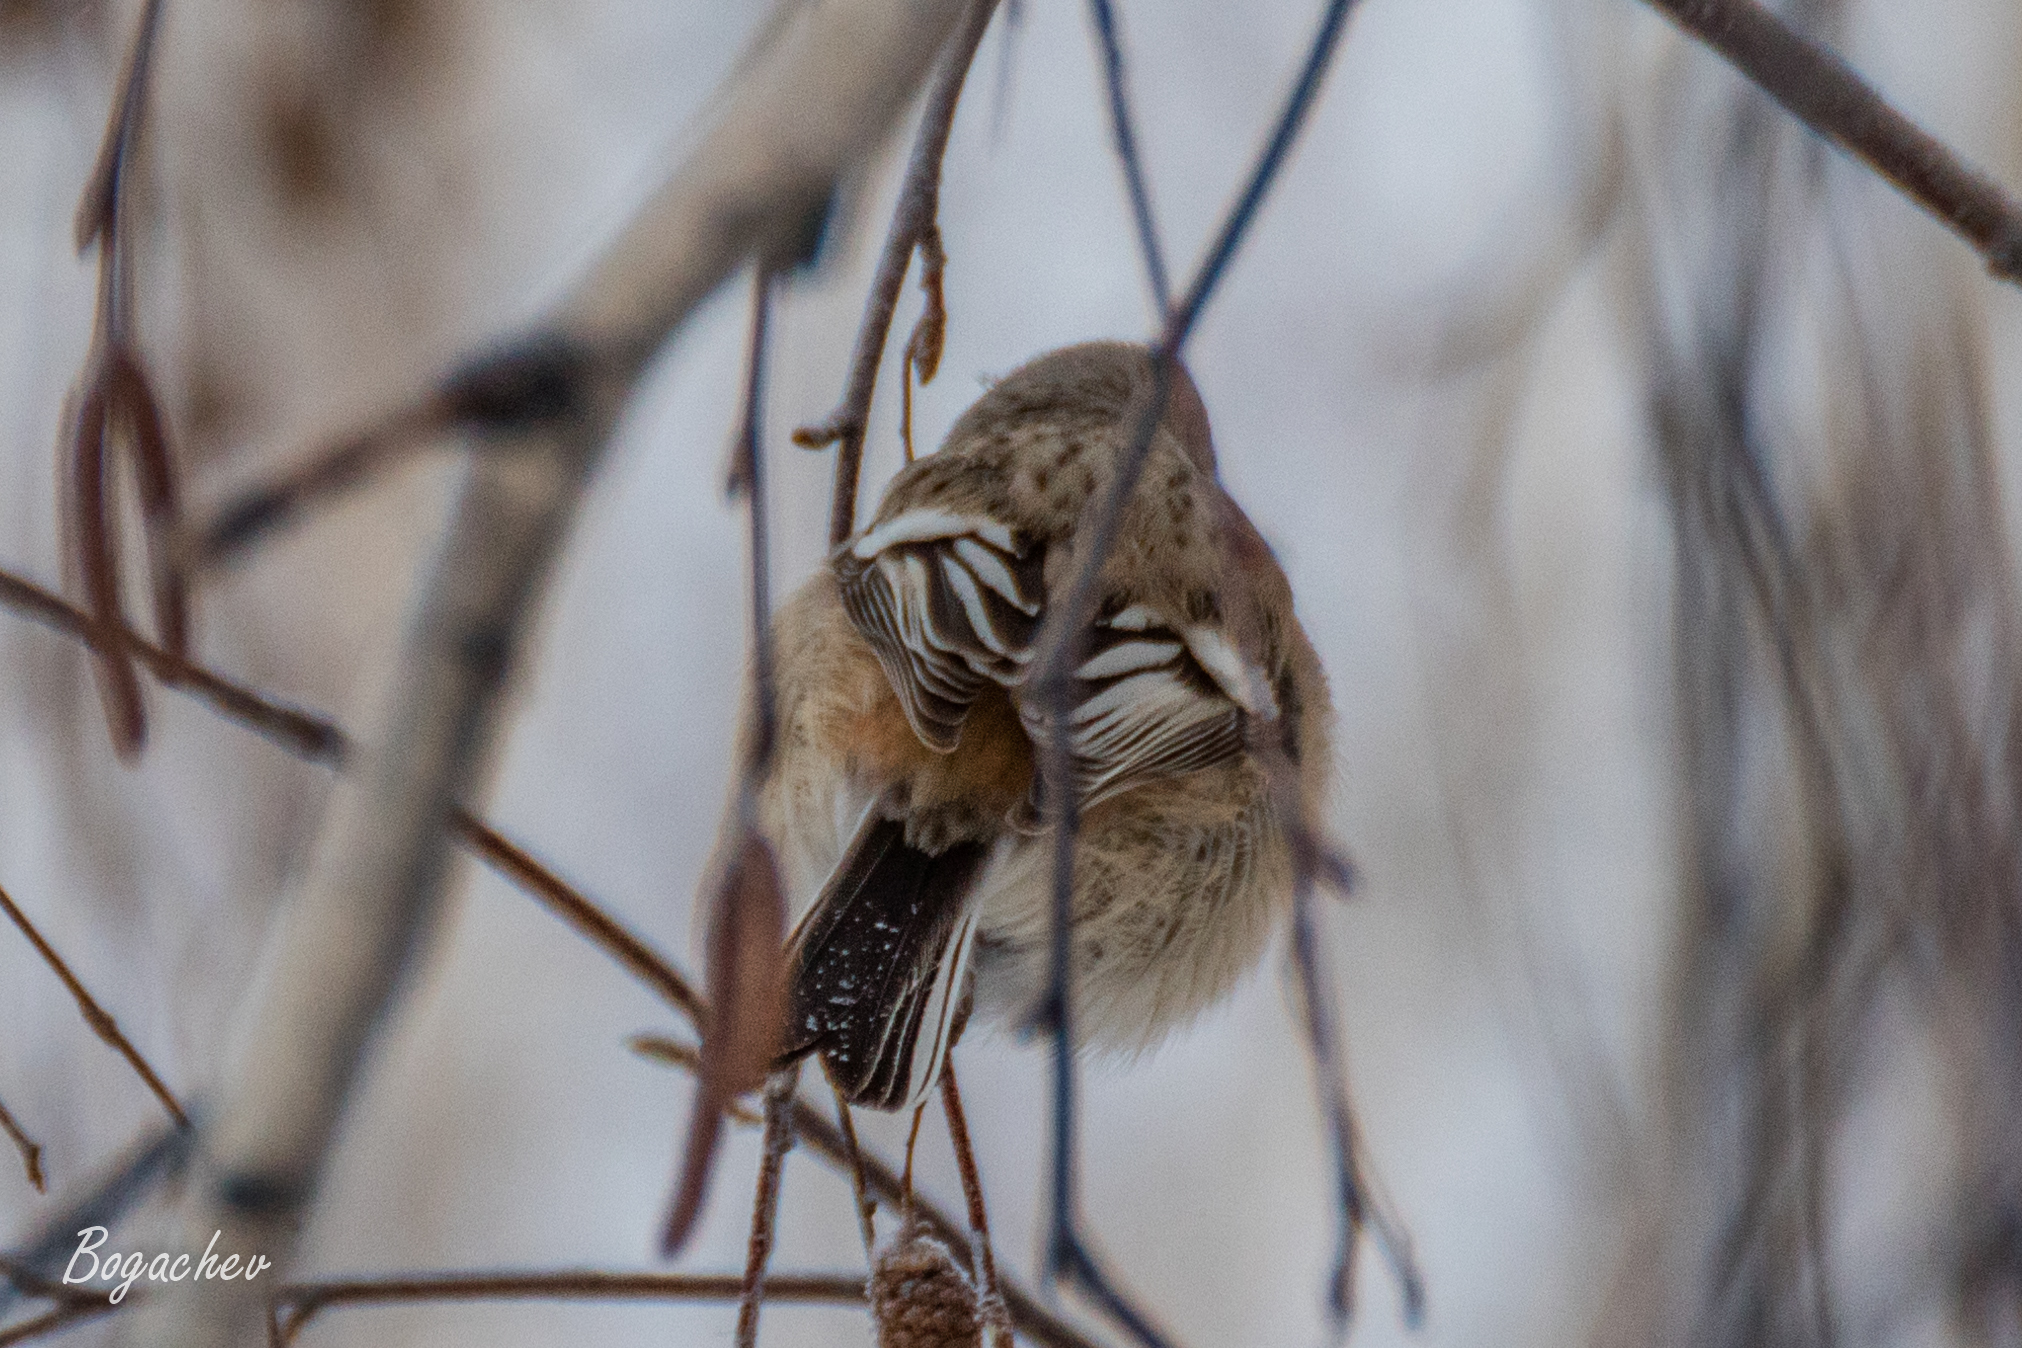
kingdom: Animalia
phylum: Chordata
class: Aves
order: Passeriformes
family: Fringillidae
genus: Carpodacus
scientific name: Carpodacus sibiricus
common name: Long-tailed rosefinch
